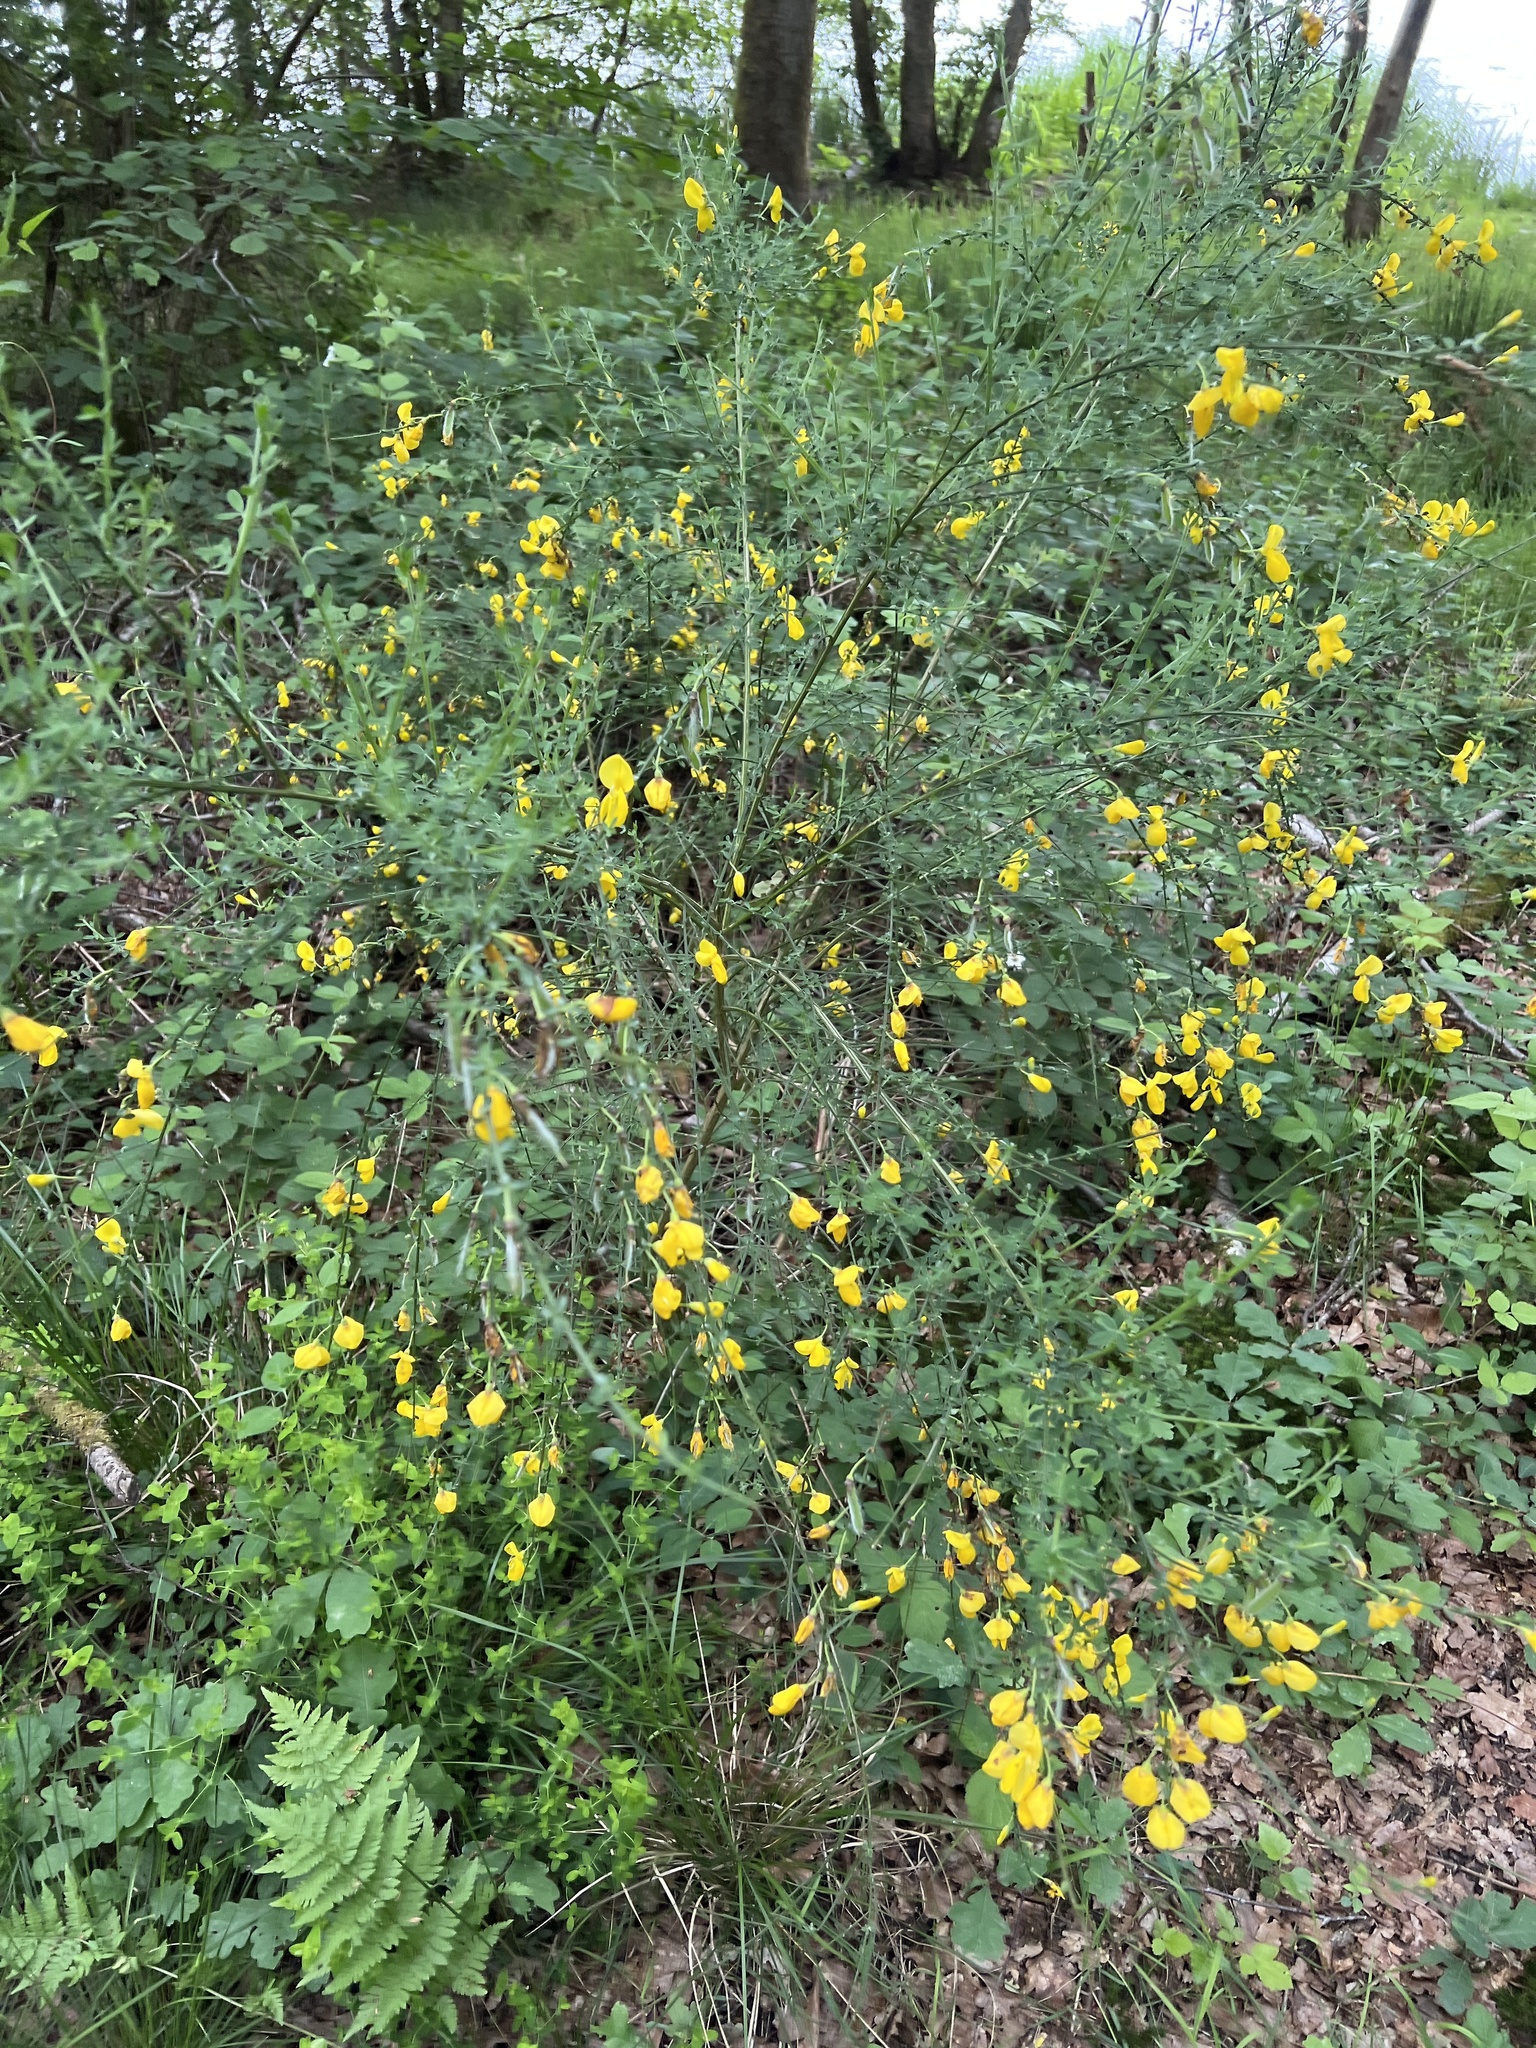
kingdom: Plantae
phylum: Tracheophyta
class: Magnoliopsida
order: Fabales
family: Fabaceae
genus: Cytisus
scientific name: Cytisus scoparius
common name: Scotch broom
